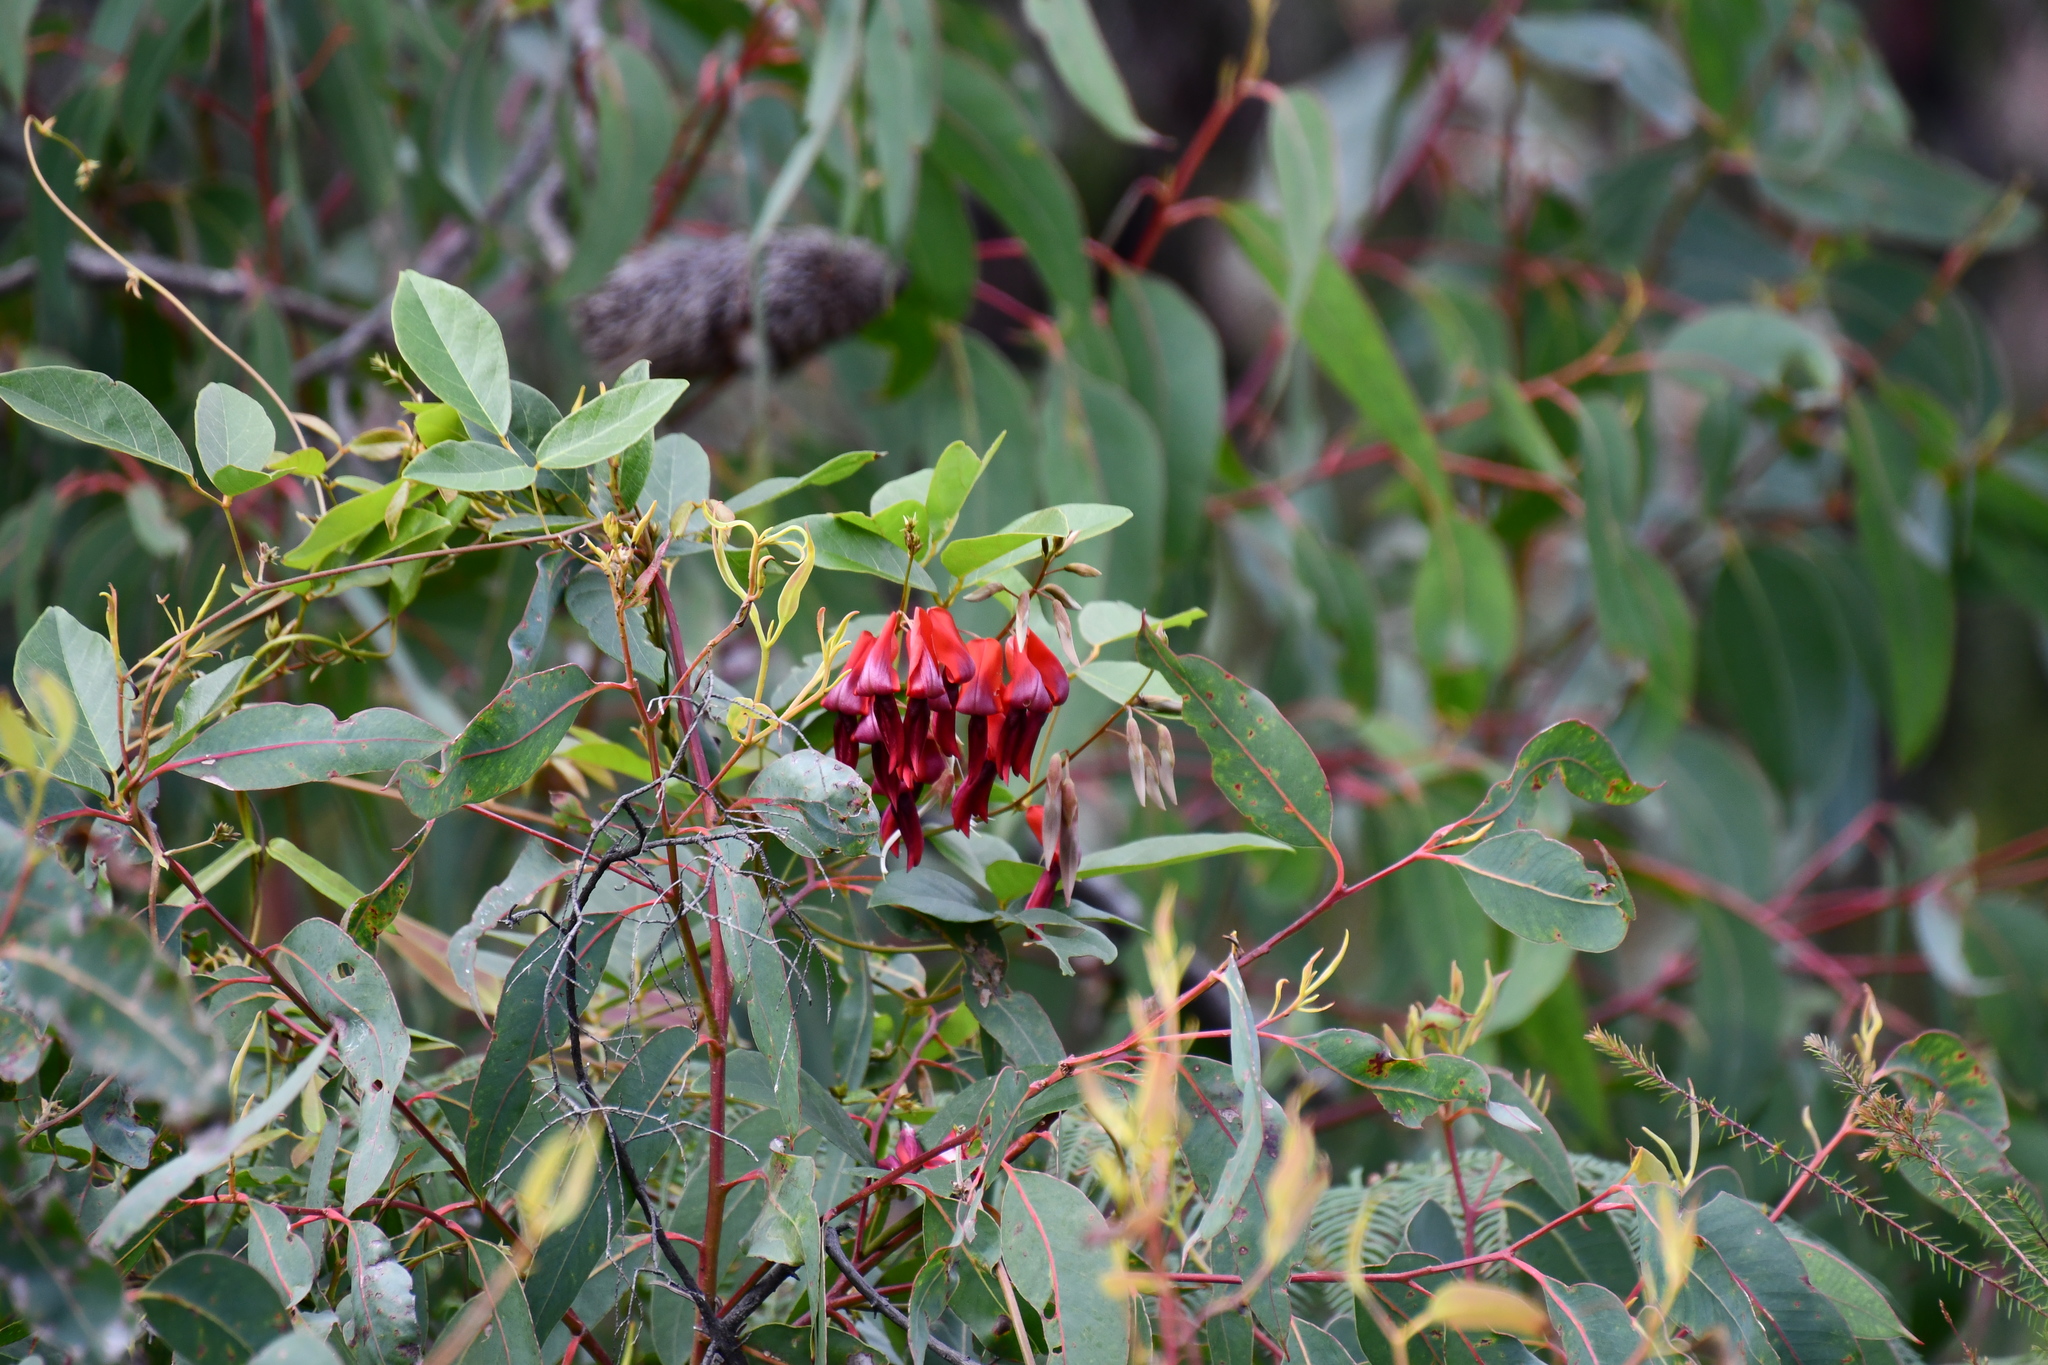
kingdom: Plantae
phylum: Tracheophyta
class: Magnoliopsida
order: Fabales
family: Fabaceae
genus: Kennedia
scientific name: Kennedia rubicunda
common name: Red kennedy-pea
